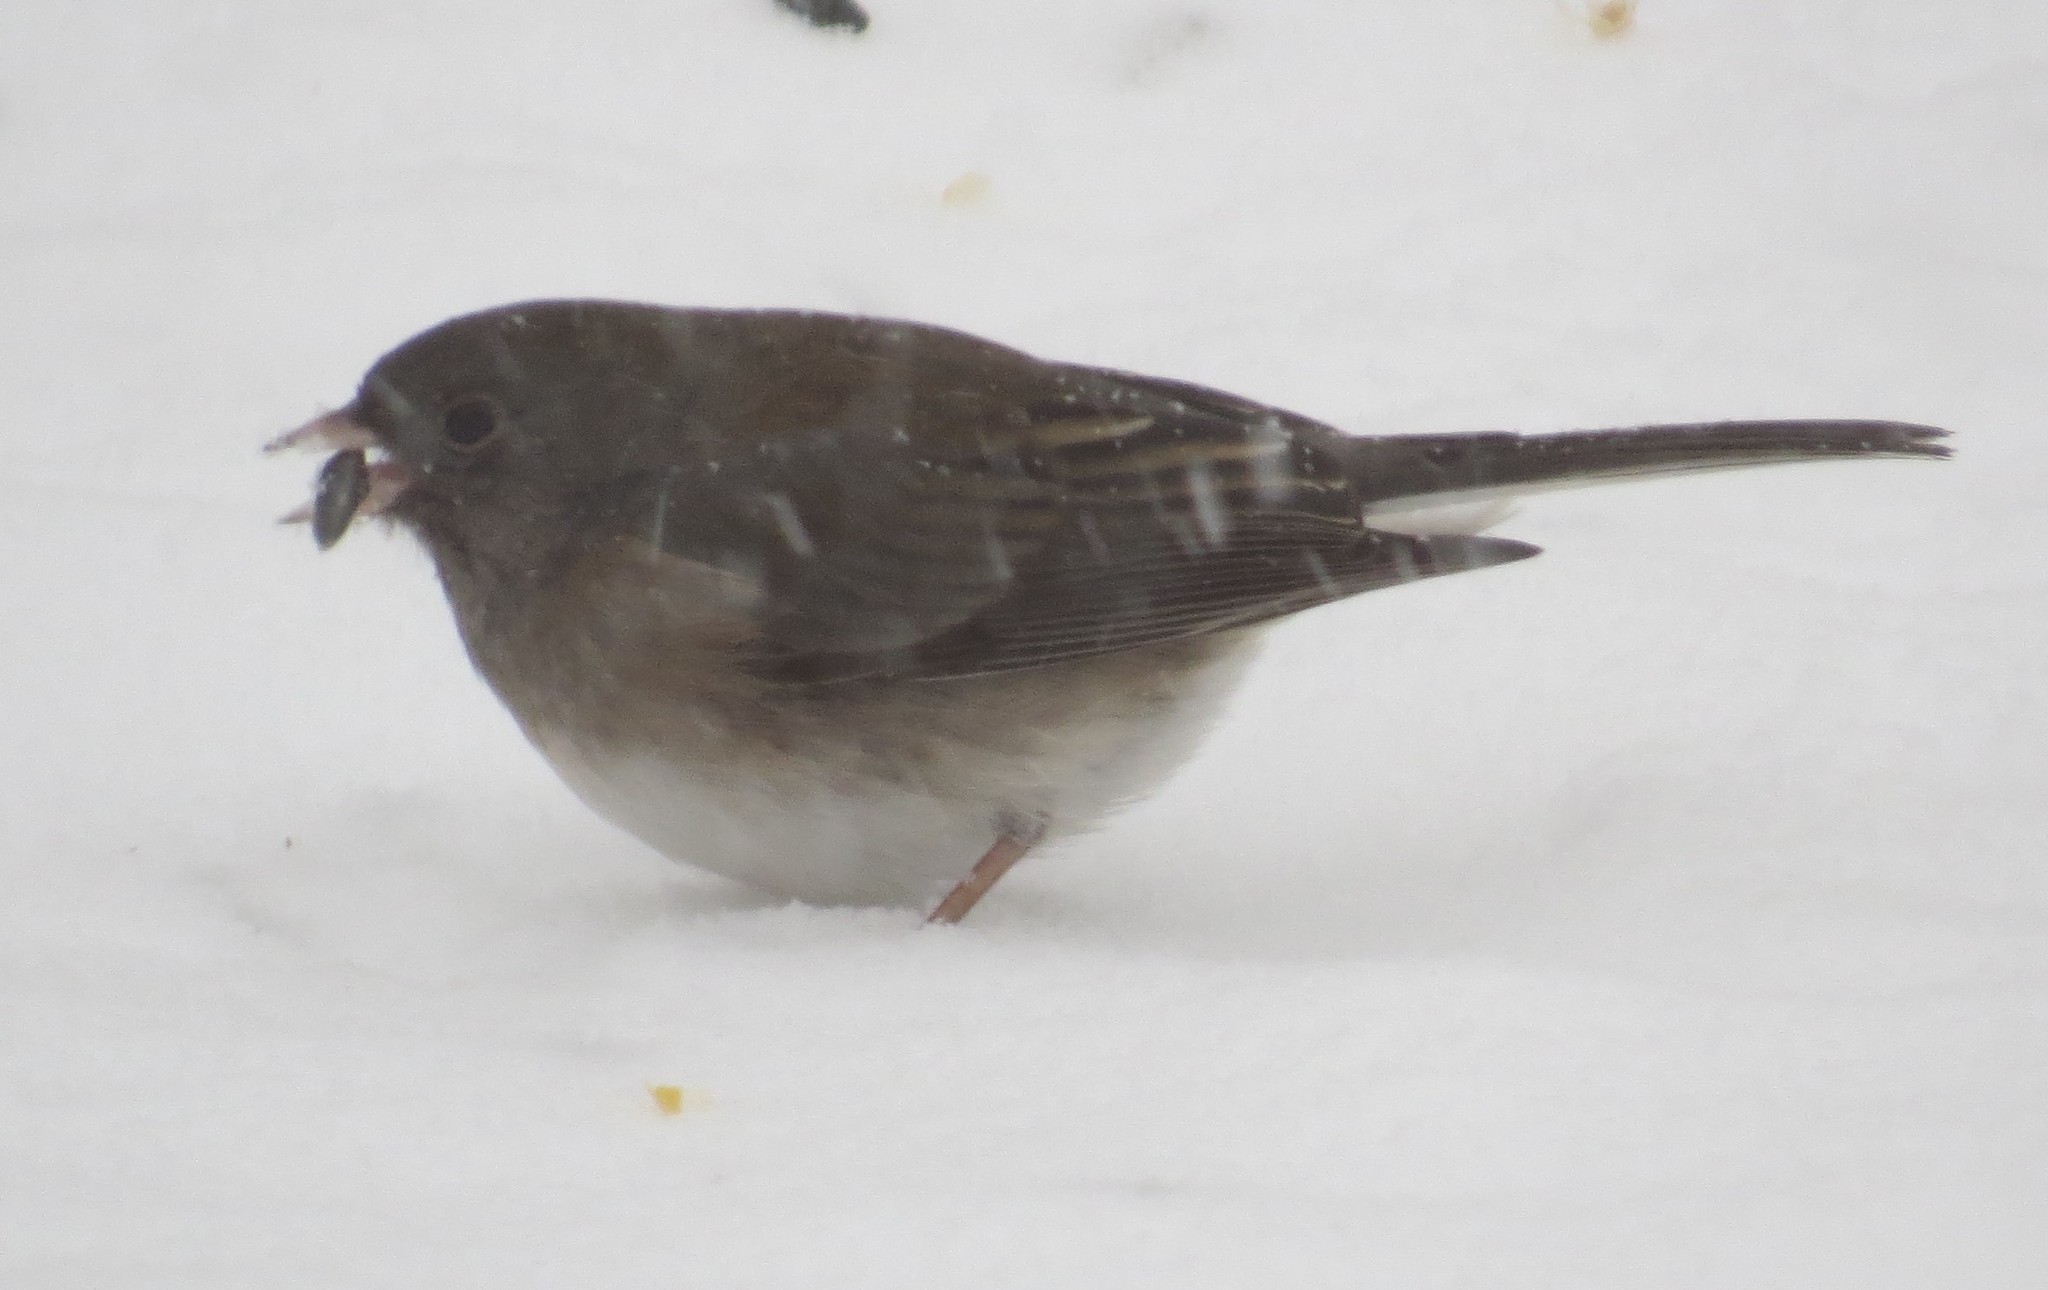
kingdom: Animalia
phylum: Chordata
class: Aves
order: Passeriformes
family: Passerellidae
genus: Junco
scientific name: Junco hyemalis
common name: Dark-eyed junco
